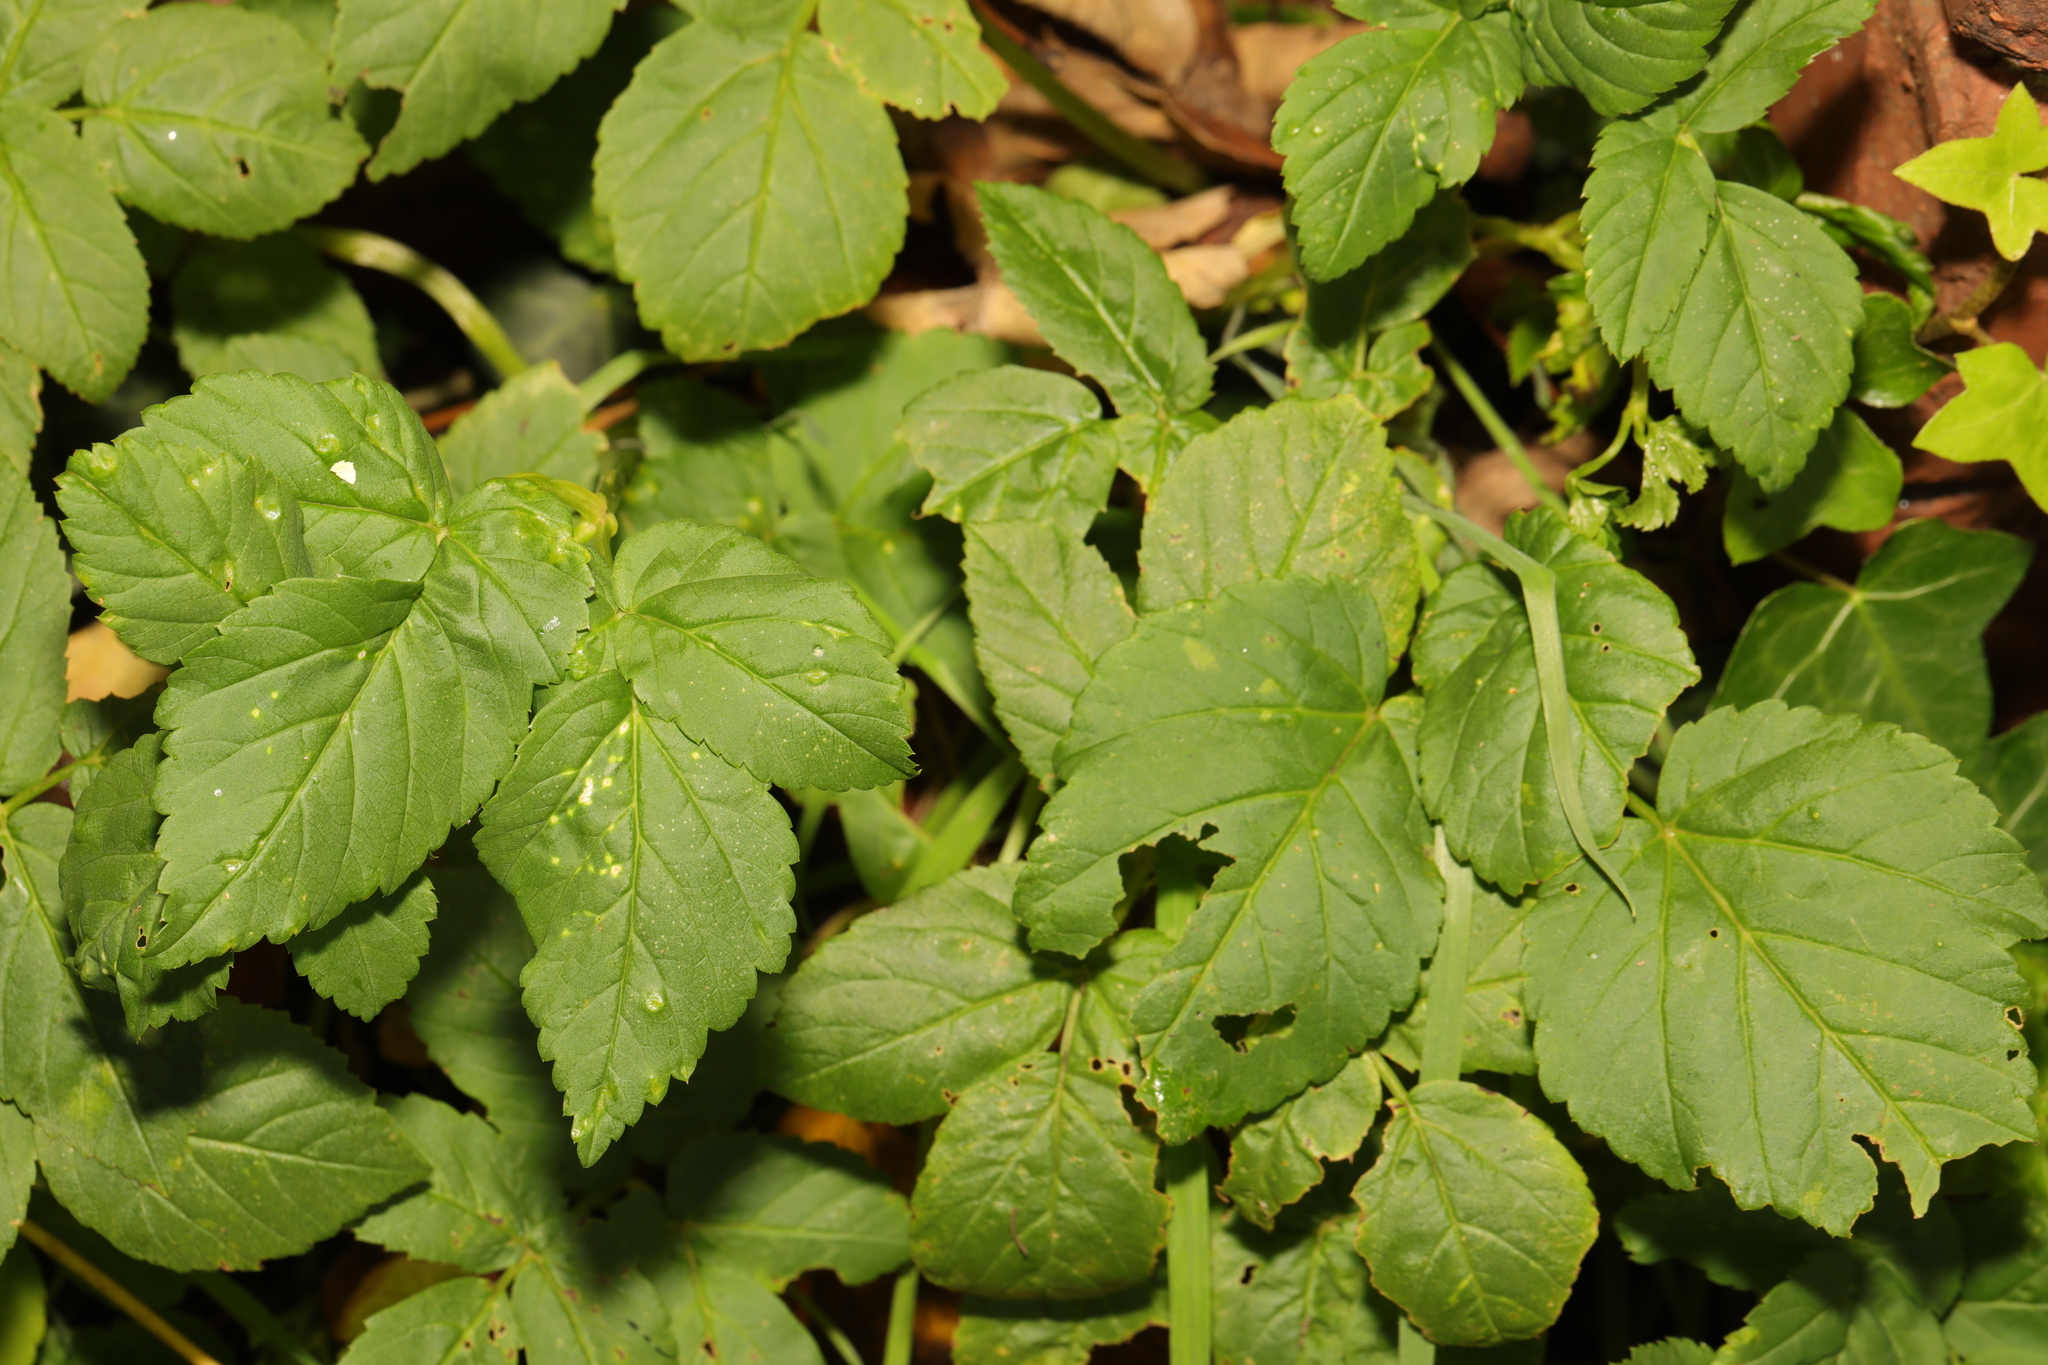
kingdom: Plantae
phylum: Tracheophyta
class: Magnoliopsida
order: Apiales
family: Apiaceae
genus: Aegopodium
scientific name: Aegopodium podagraria
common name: Ground-elder
